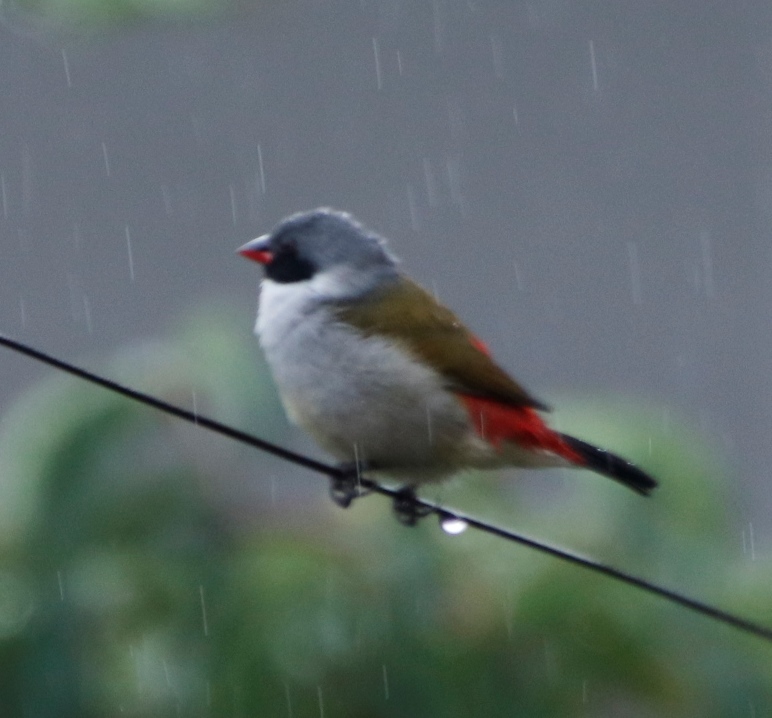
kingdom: Animalia
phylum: Chordata
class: Aves
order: Passeriformes
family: Estrildidae
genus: Coccopygia
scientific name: Coccopygia melanotis
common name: Swee waxbill
